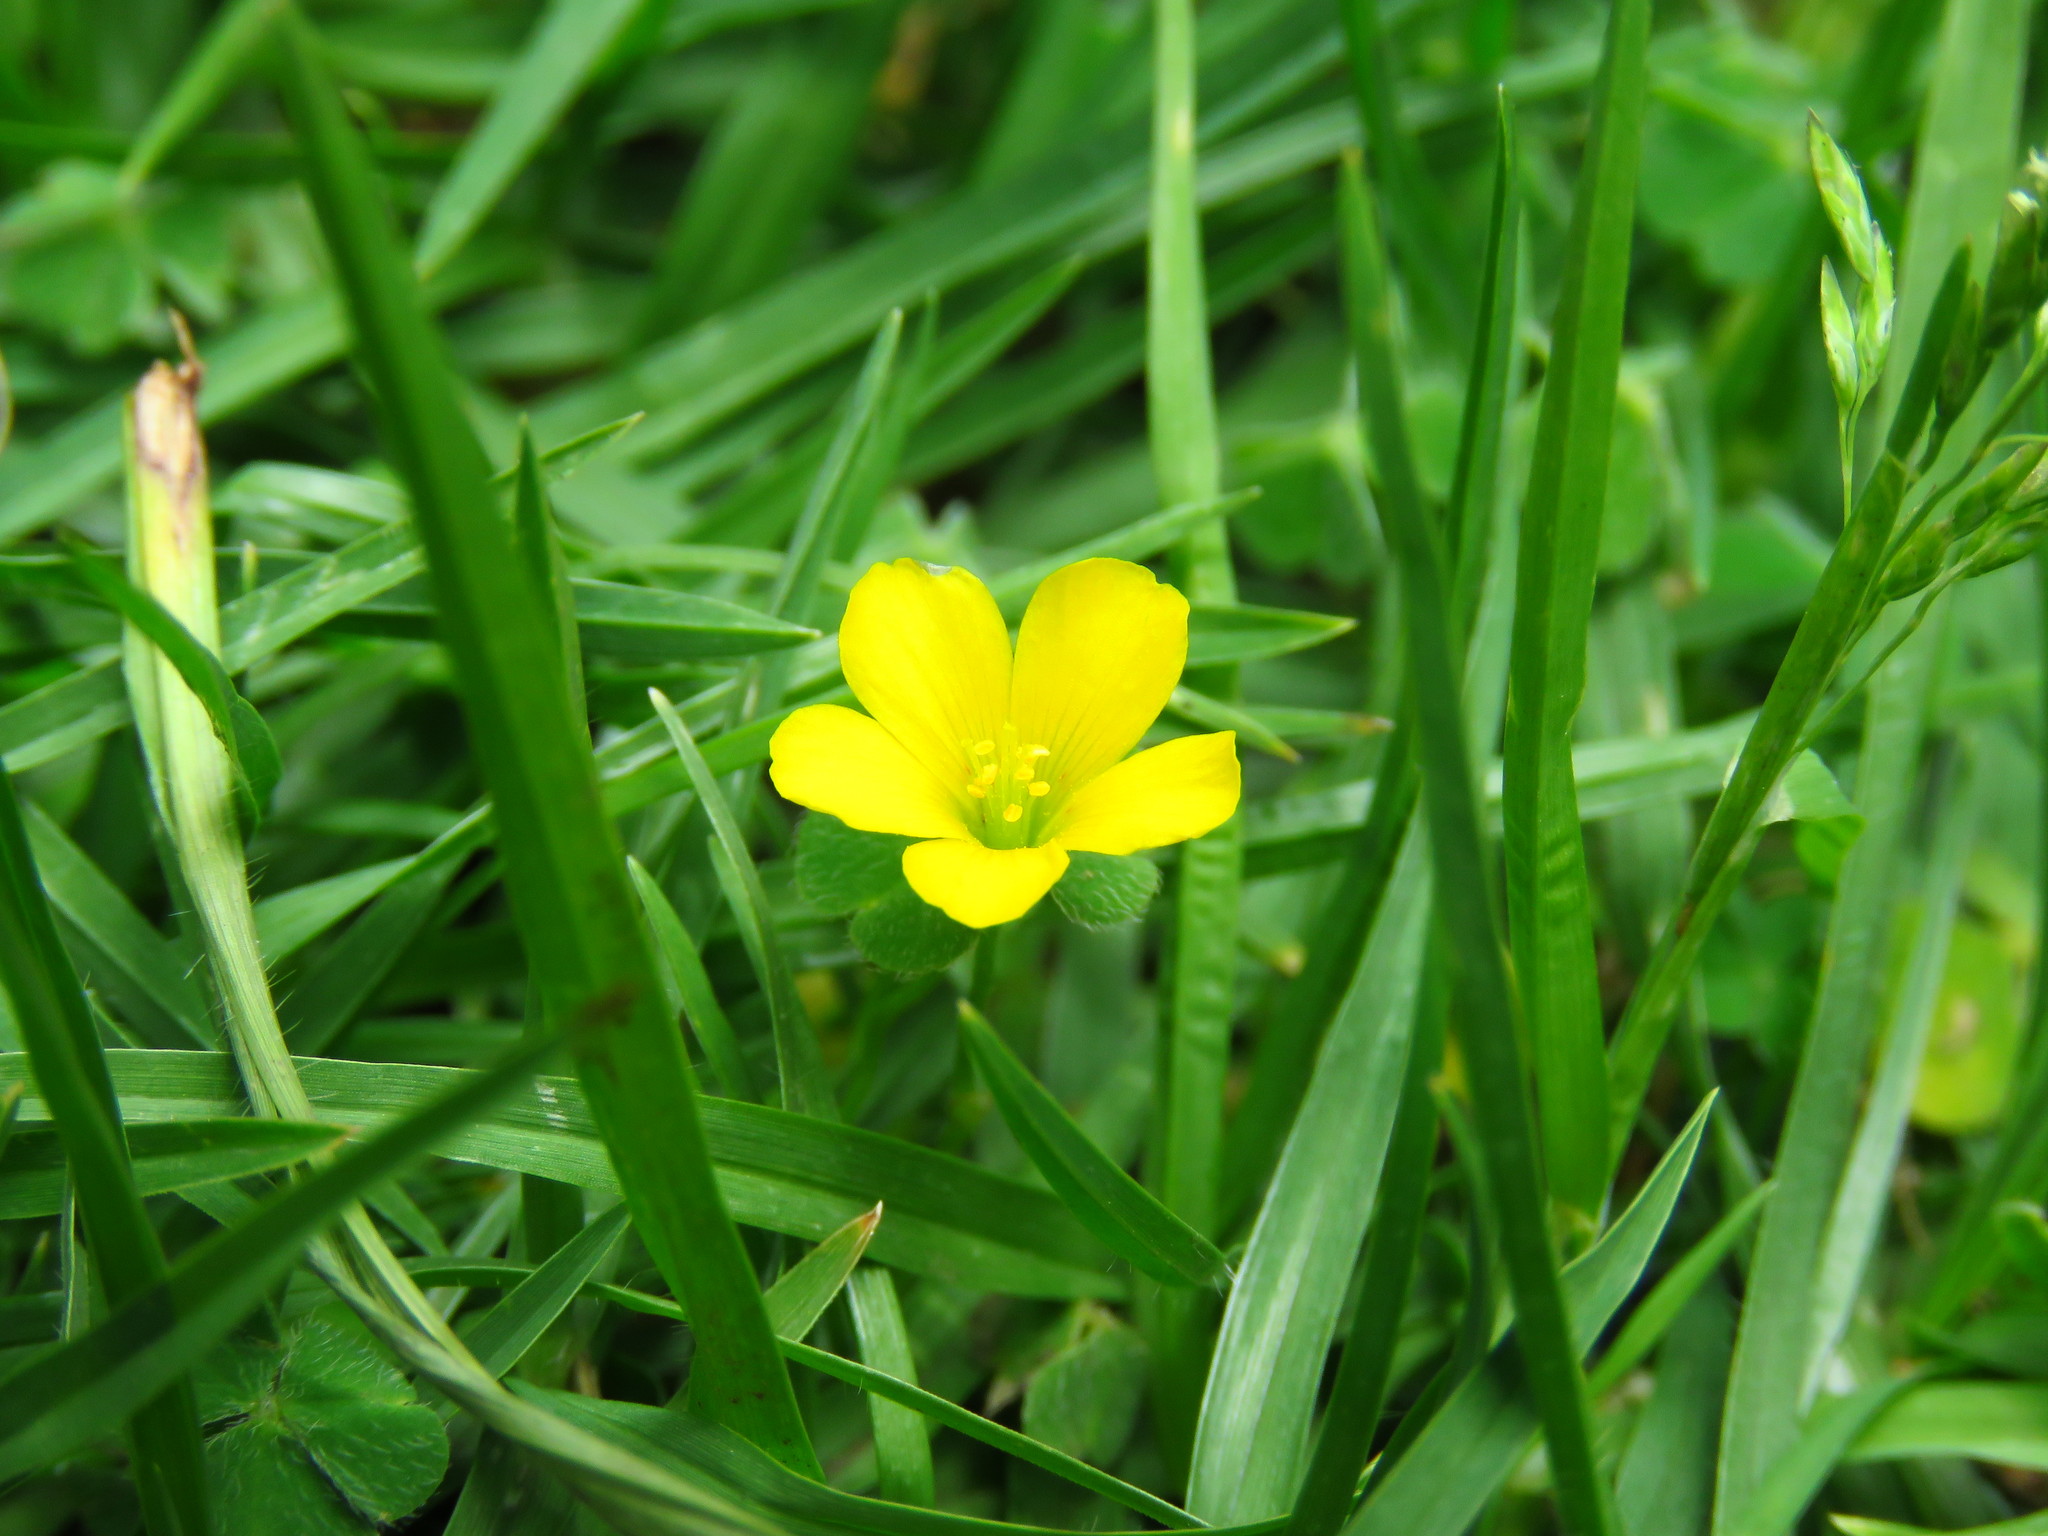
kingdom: Plantae
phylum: Tracheophyta
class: Magnoliopsida
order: Oxalidales
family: Oxalidaceae
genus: Oxalis
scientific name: Oxalis corniculata
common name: Procumbent yellow-sorrel
